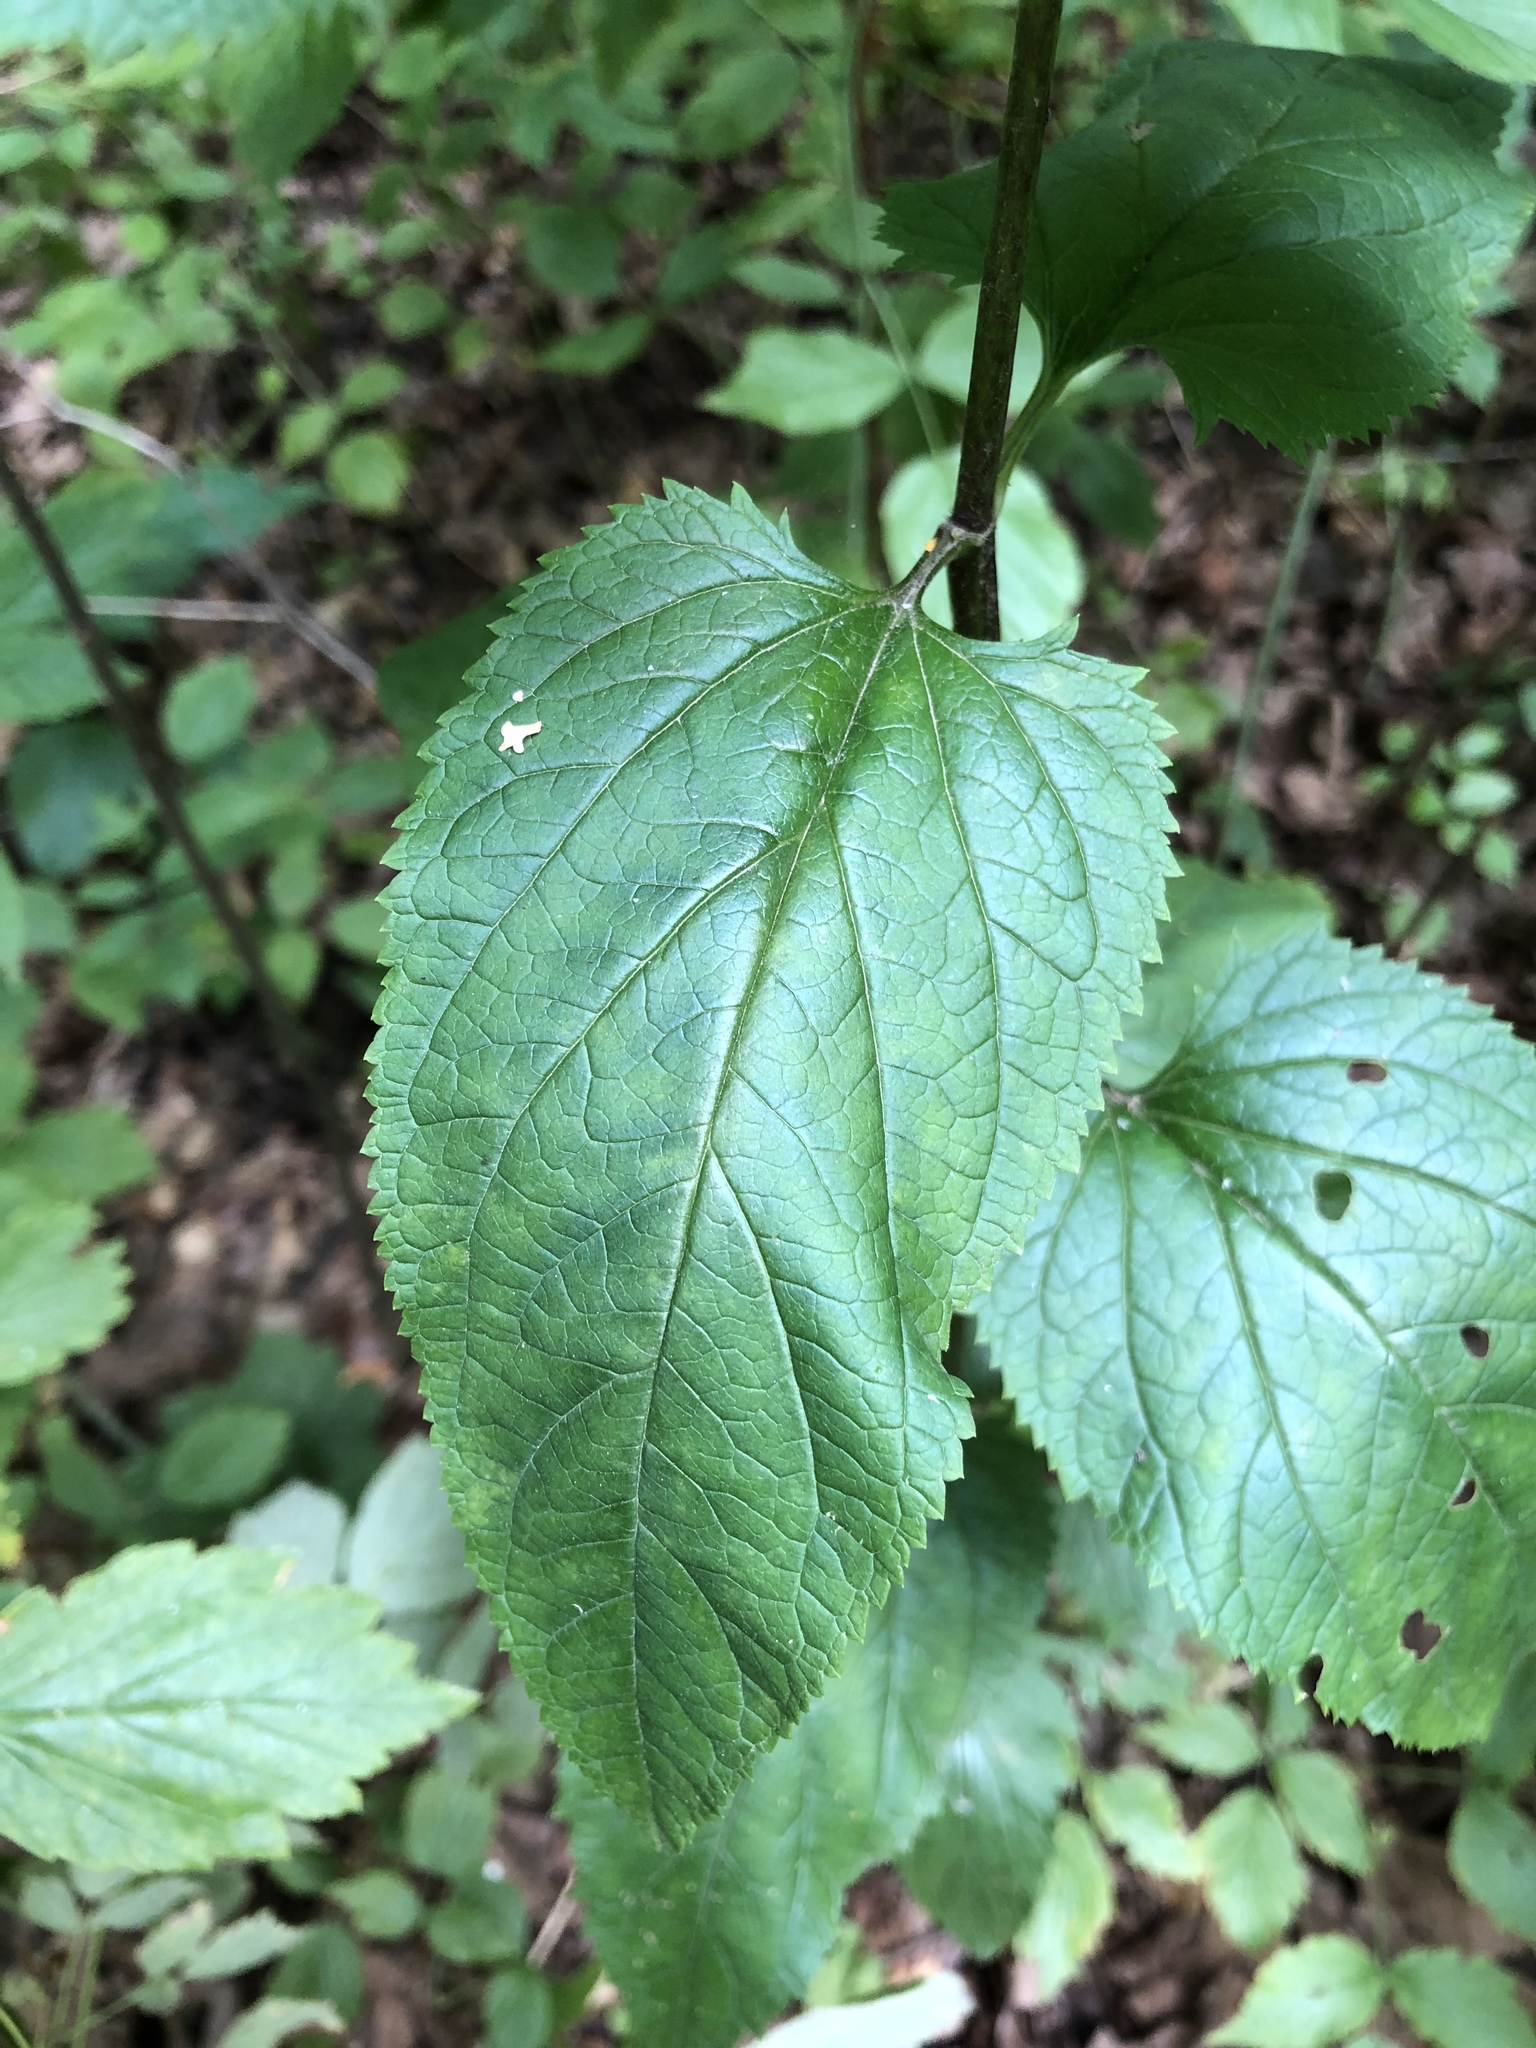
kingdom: Plantae
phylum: Tracheophyta
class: Magnoliopsida
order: Lamiales
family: Scrophulariaceae
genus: Scrophularia
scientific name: Scrophularia nodosa
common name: Common figwort
